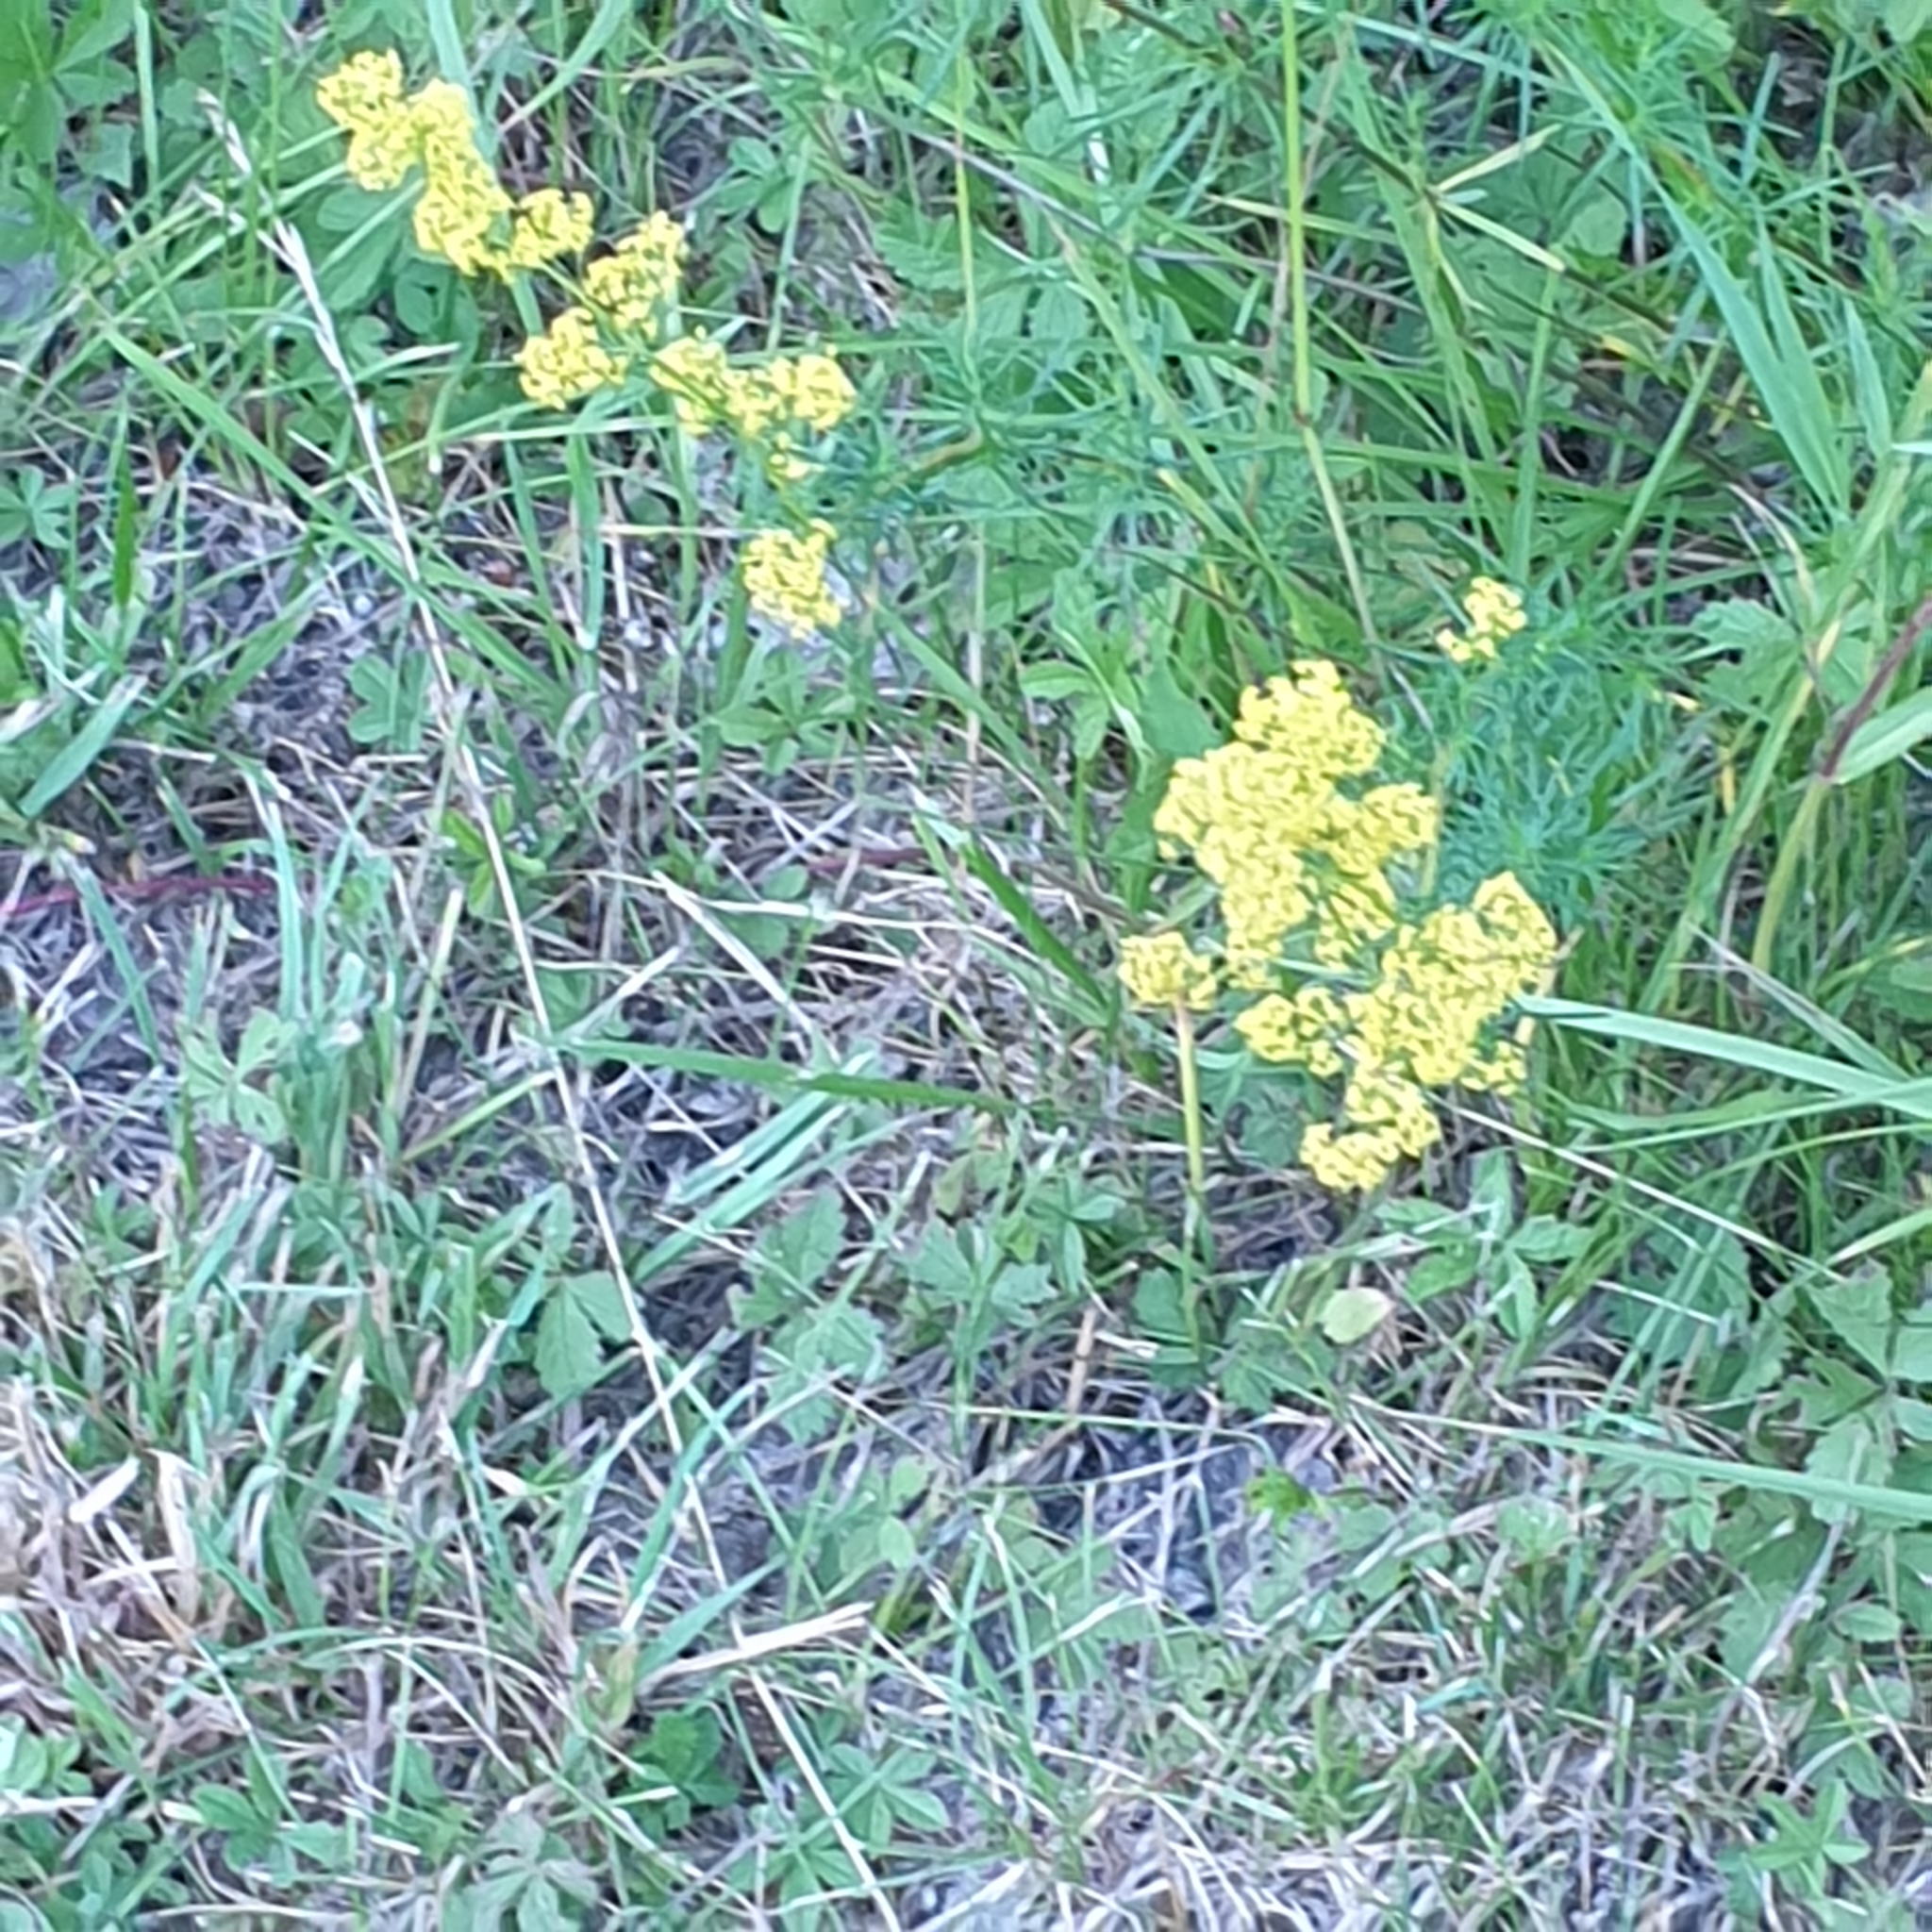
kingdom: Plantae
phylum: Tracheophyta
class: Magnoliopsida
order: Gentianales
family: Rubiaceae
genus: Galium
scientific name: Galium verum
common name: Lady's bedstraw
